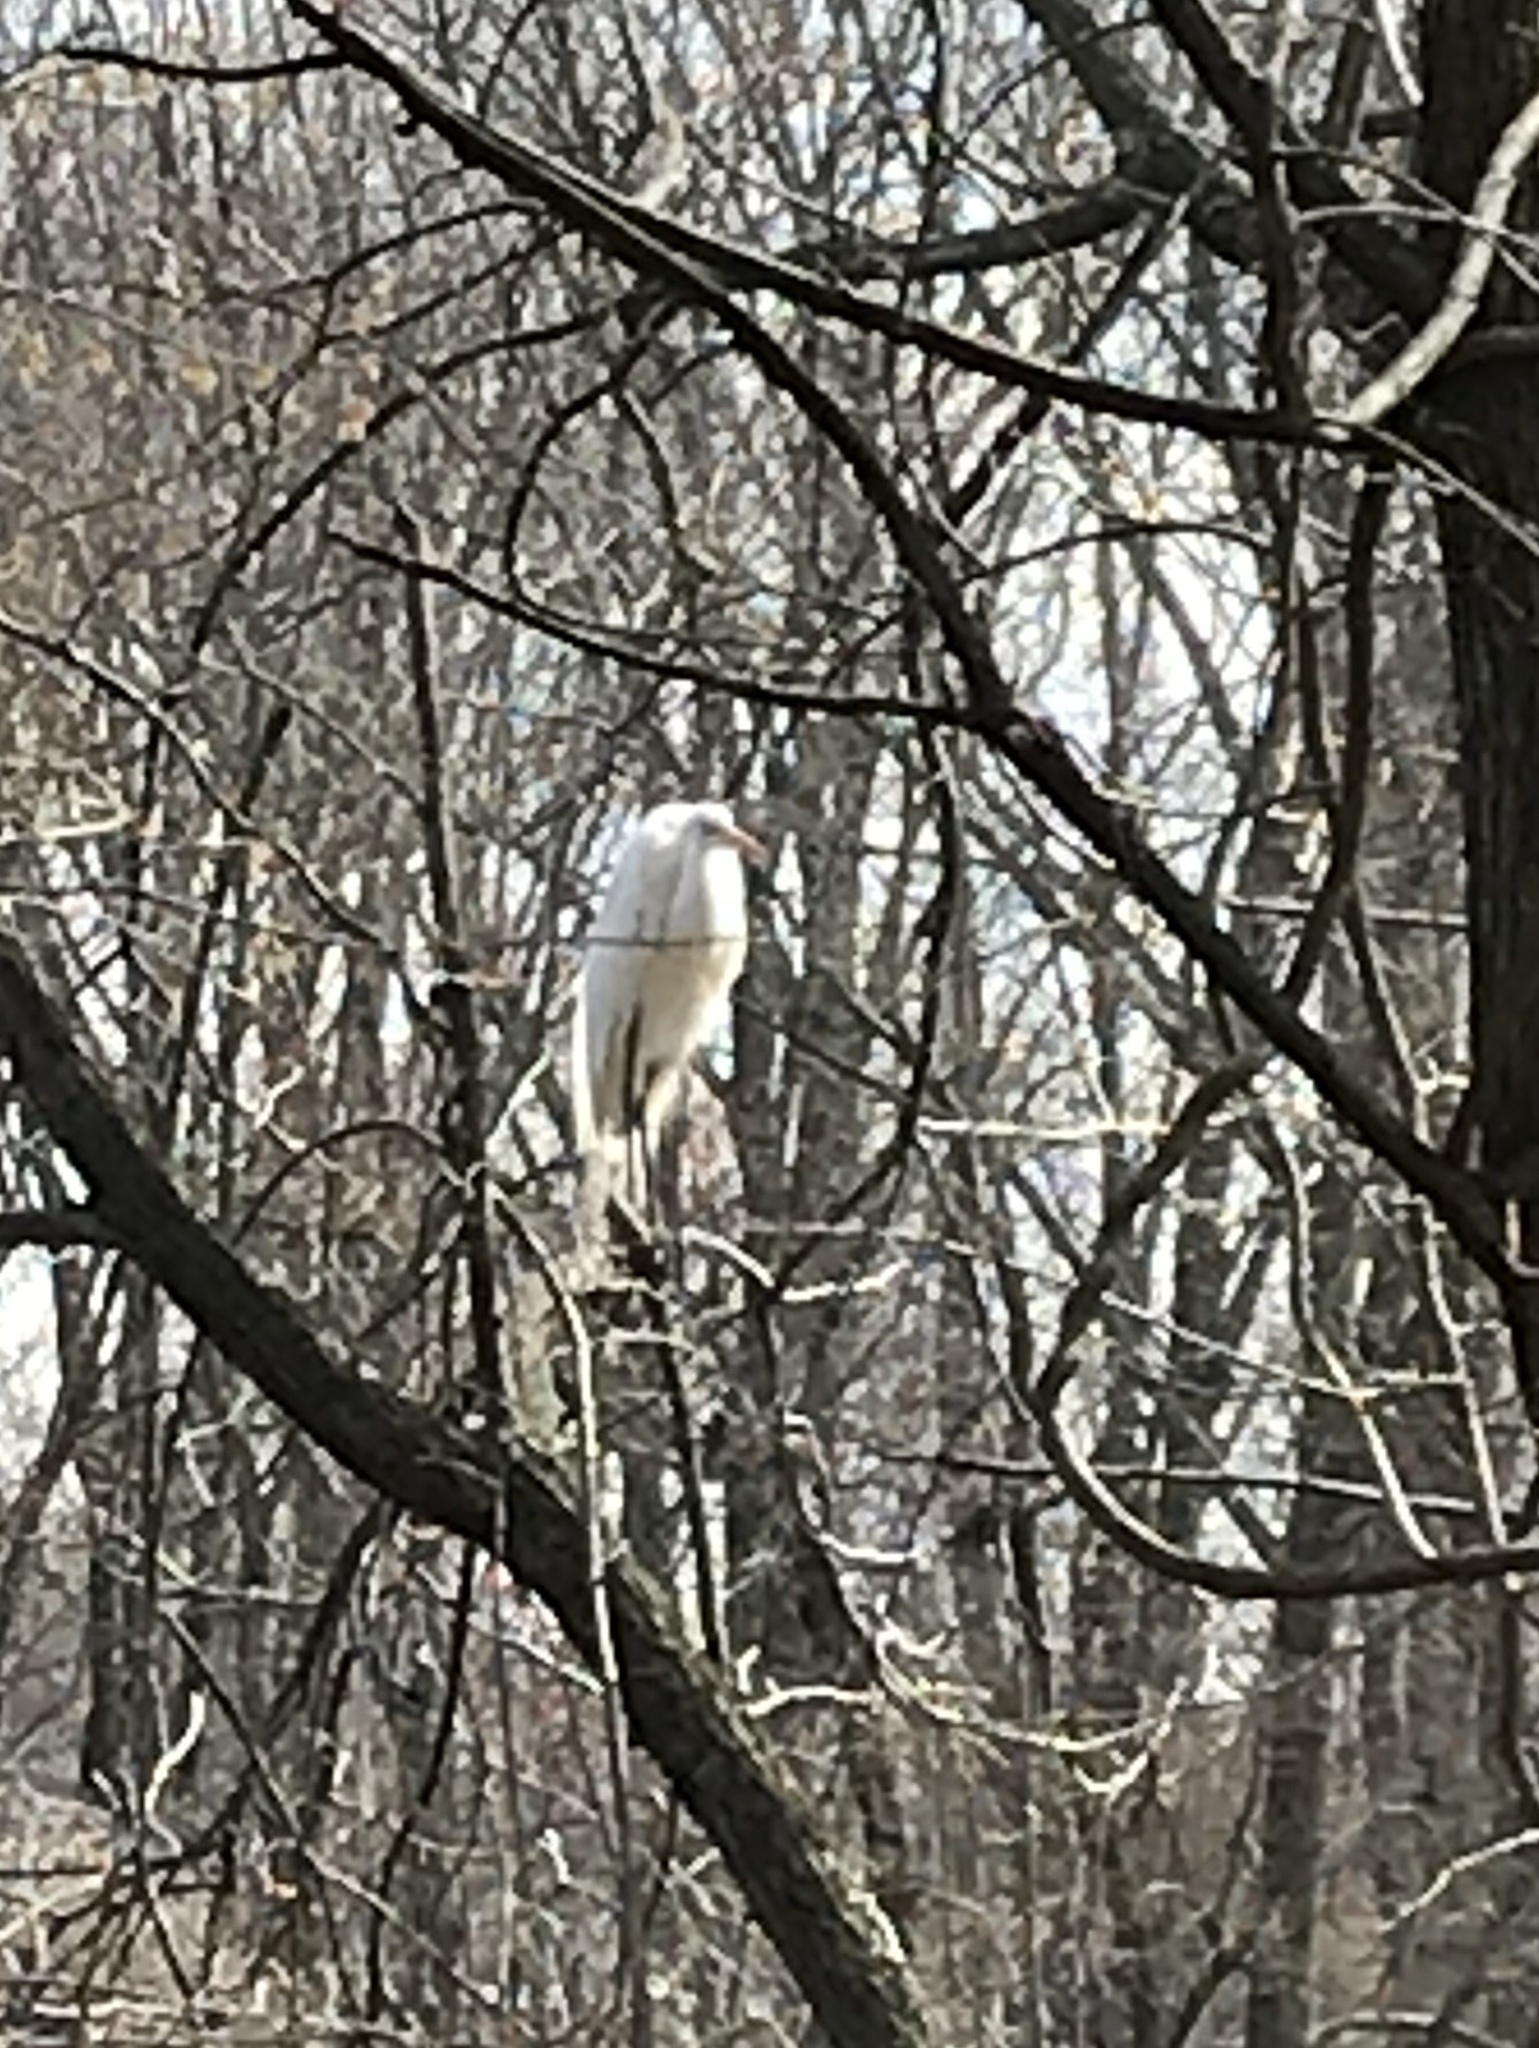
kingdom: Animalia
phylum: Chordata
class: Aves
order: Pelecaniformes
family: Ardeidae
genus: Ardea
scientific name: Ardea alba
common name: Great egret
